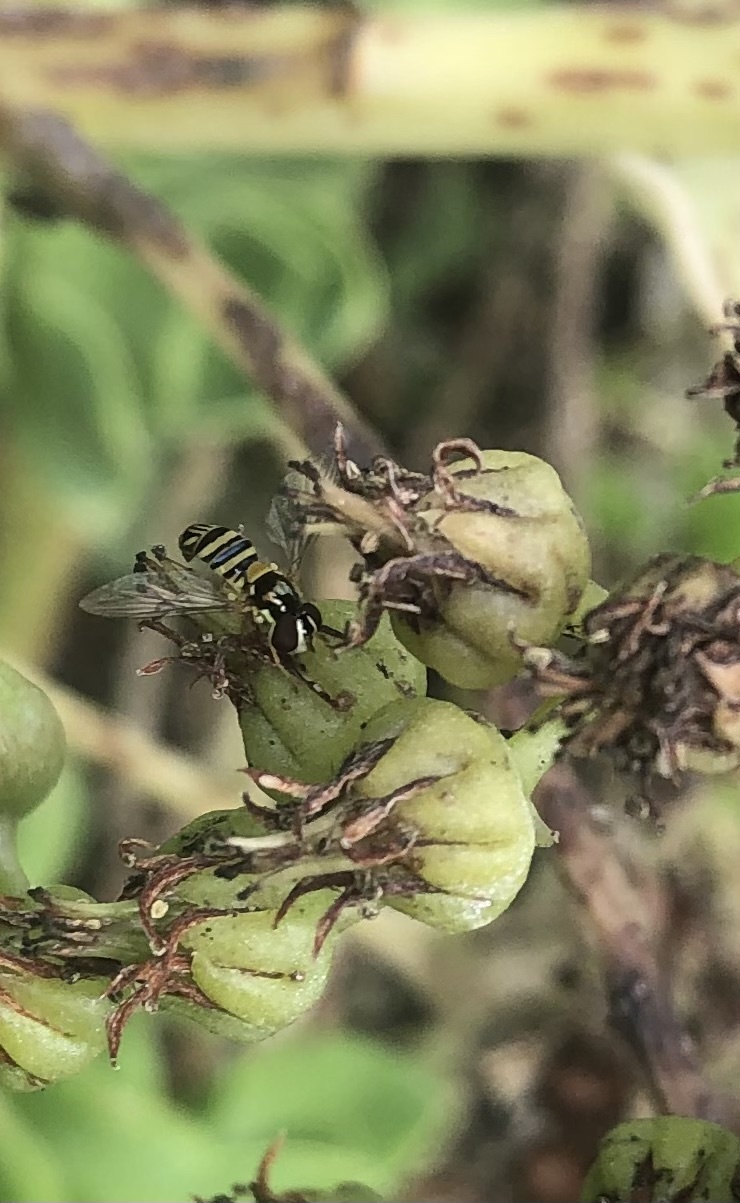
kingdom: Animalia
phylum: Arthropoda
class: Insecta
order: Diptera
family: Syrphidae
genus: Allograpta
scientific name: Allograpta obliqua
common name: Common oblique syrphid
